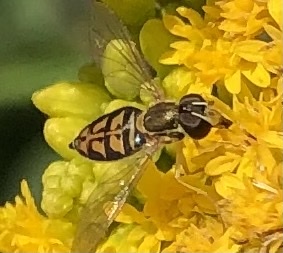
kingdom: Animalia
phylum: Arthropoda
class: Insecta
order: Diptera
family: Syrphidae
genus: Toxomerus
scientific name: Toxomerus marginatus
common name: Syrphid fly
